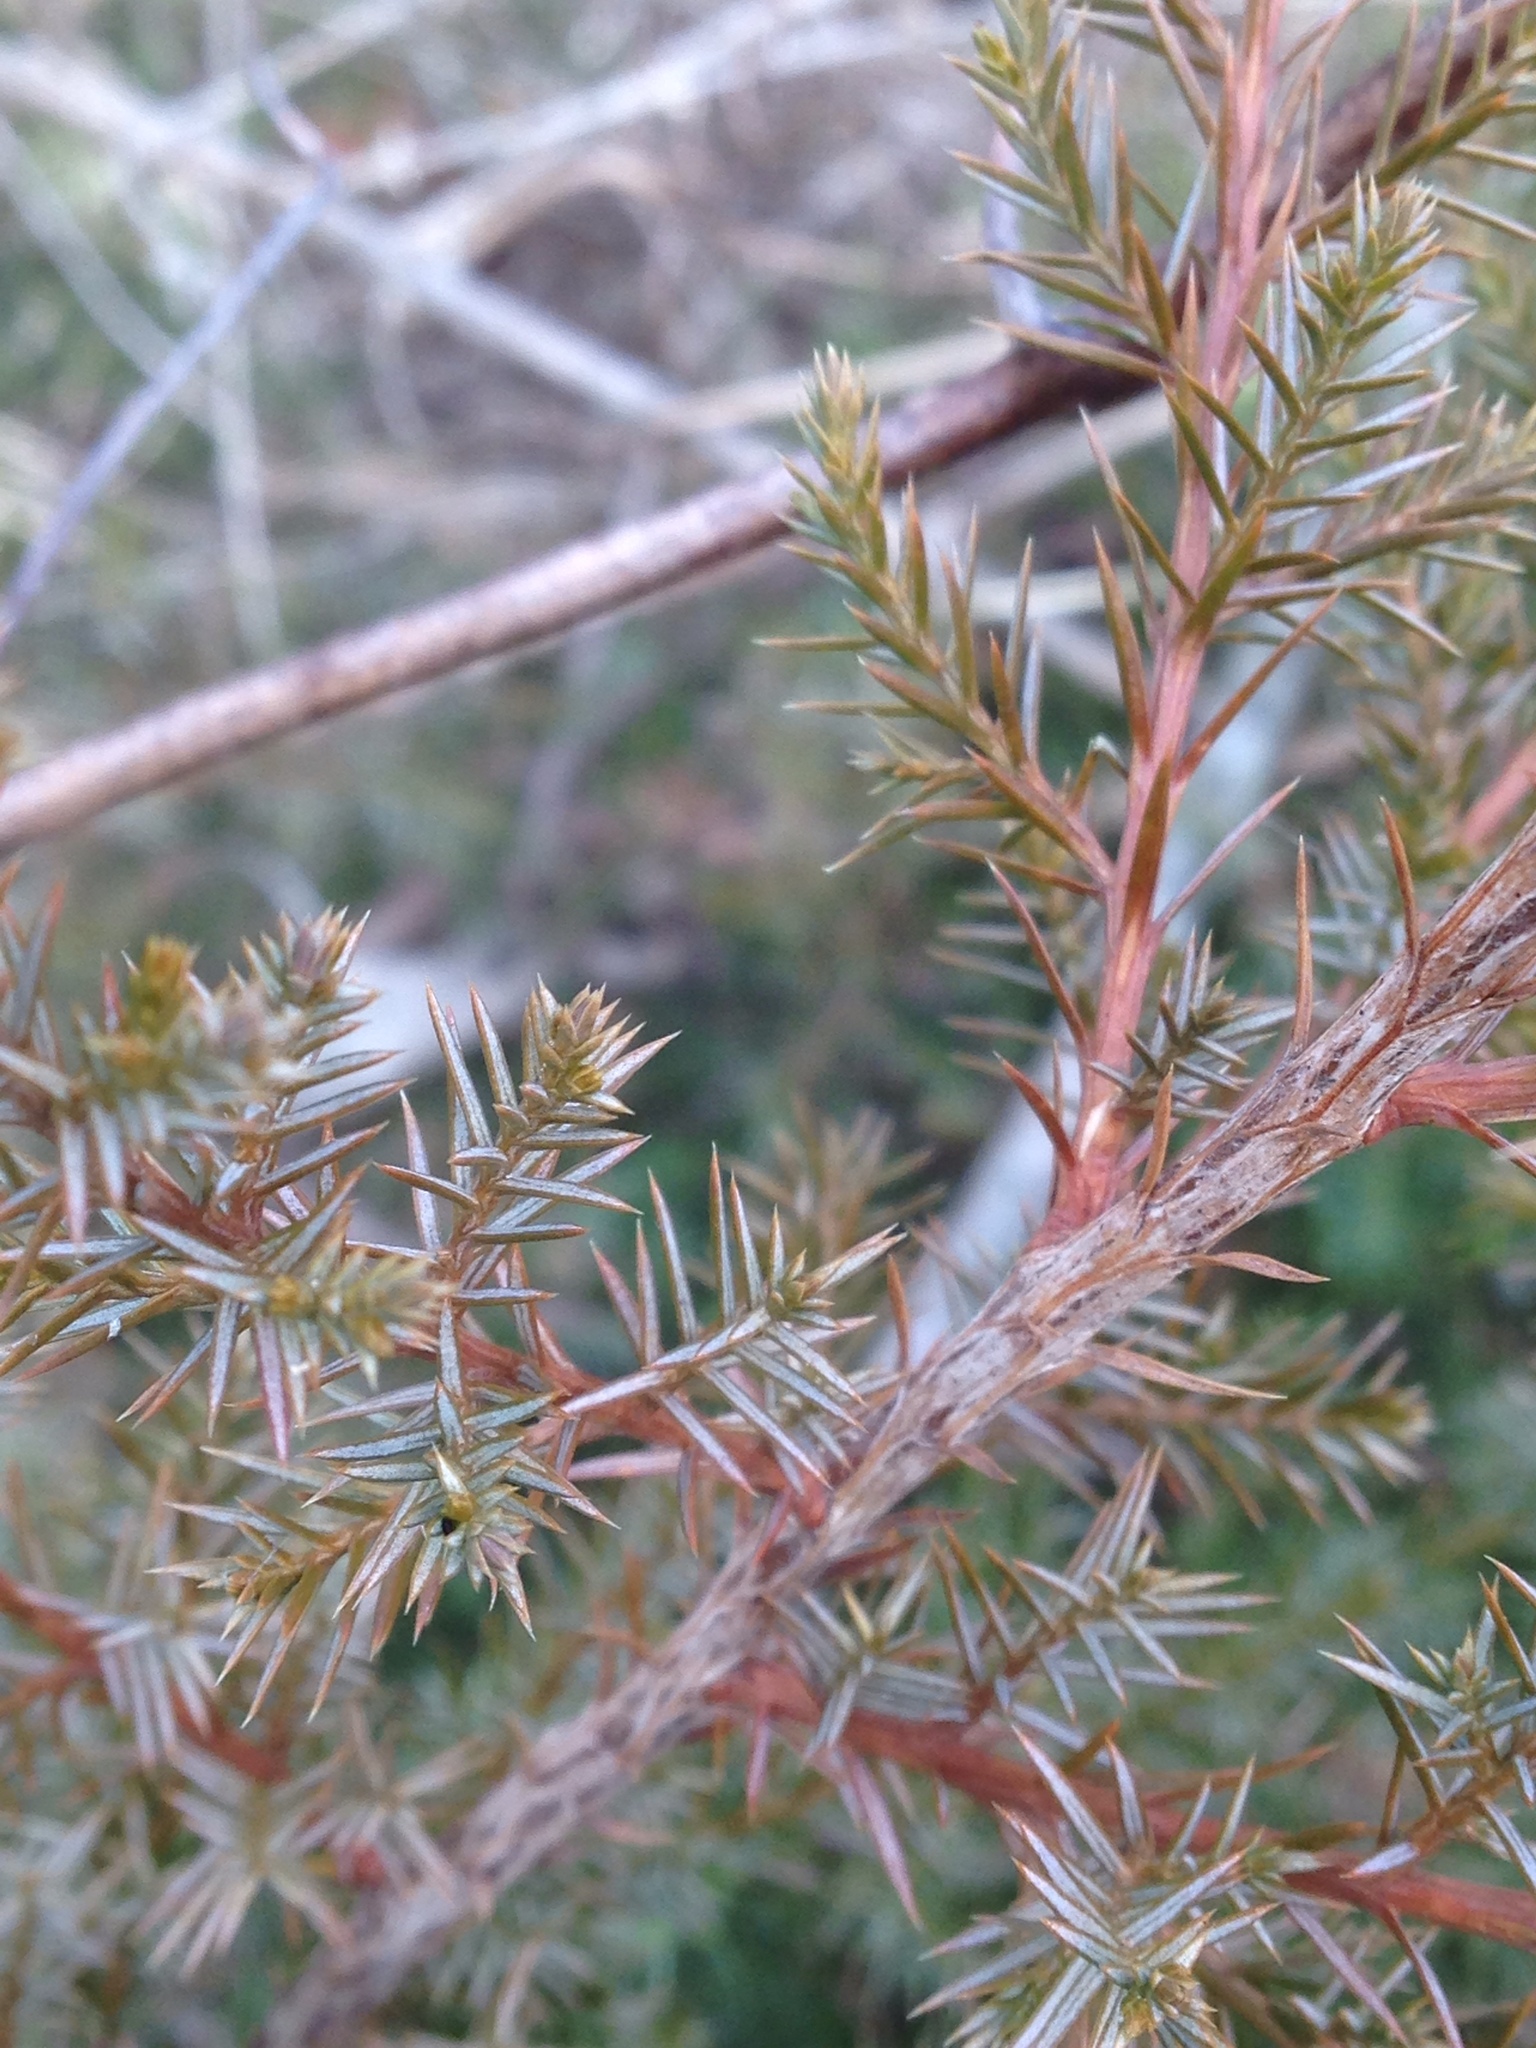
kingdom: Plantae
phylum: Tracheophyta
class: Pinopsida
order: Pinales
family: Cupressaceae
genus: Juniperus
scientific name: Juniperus virginiana
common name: Red juniper
